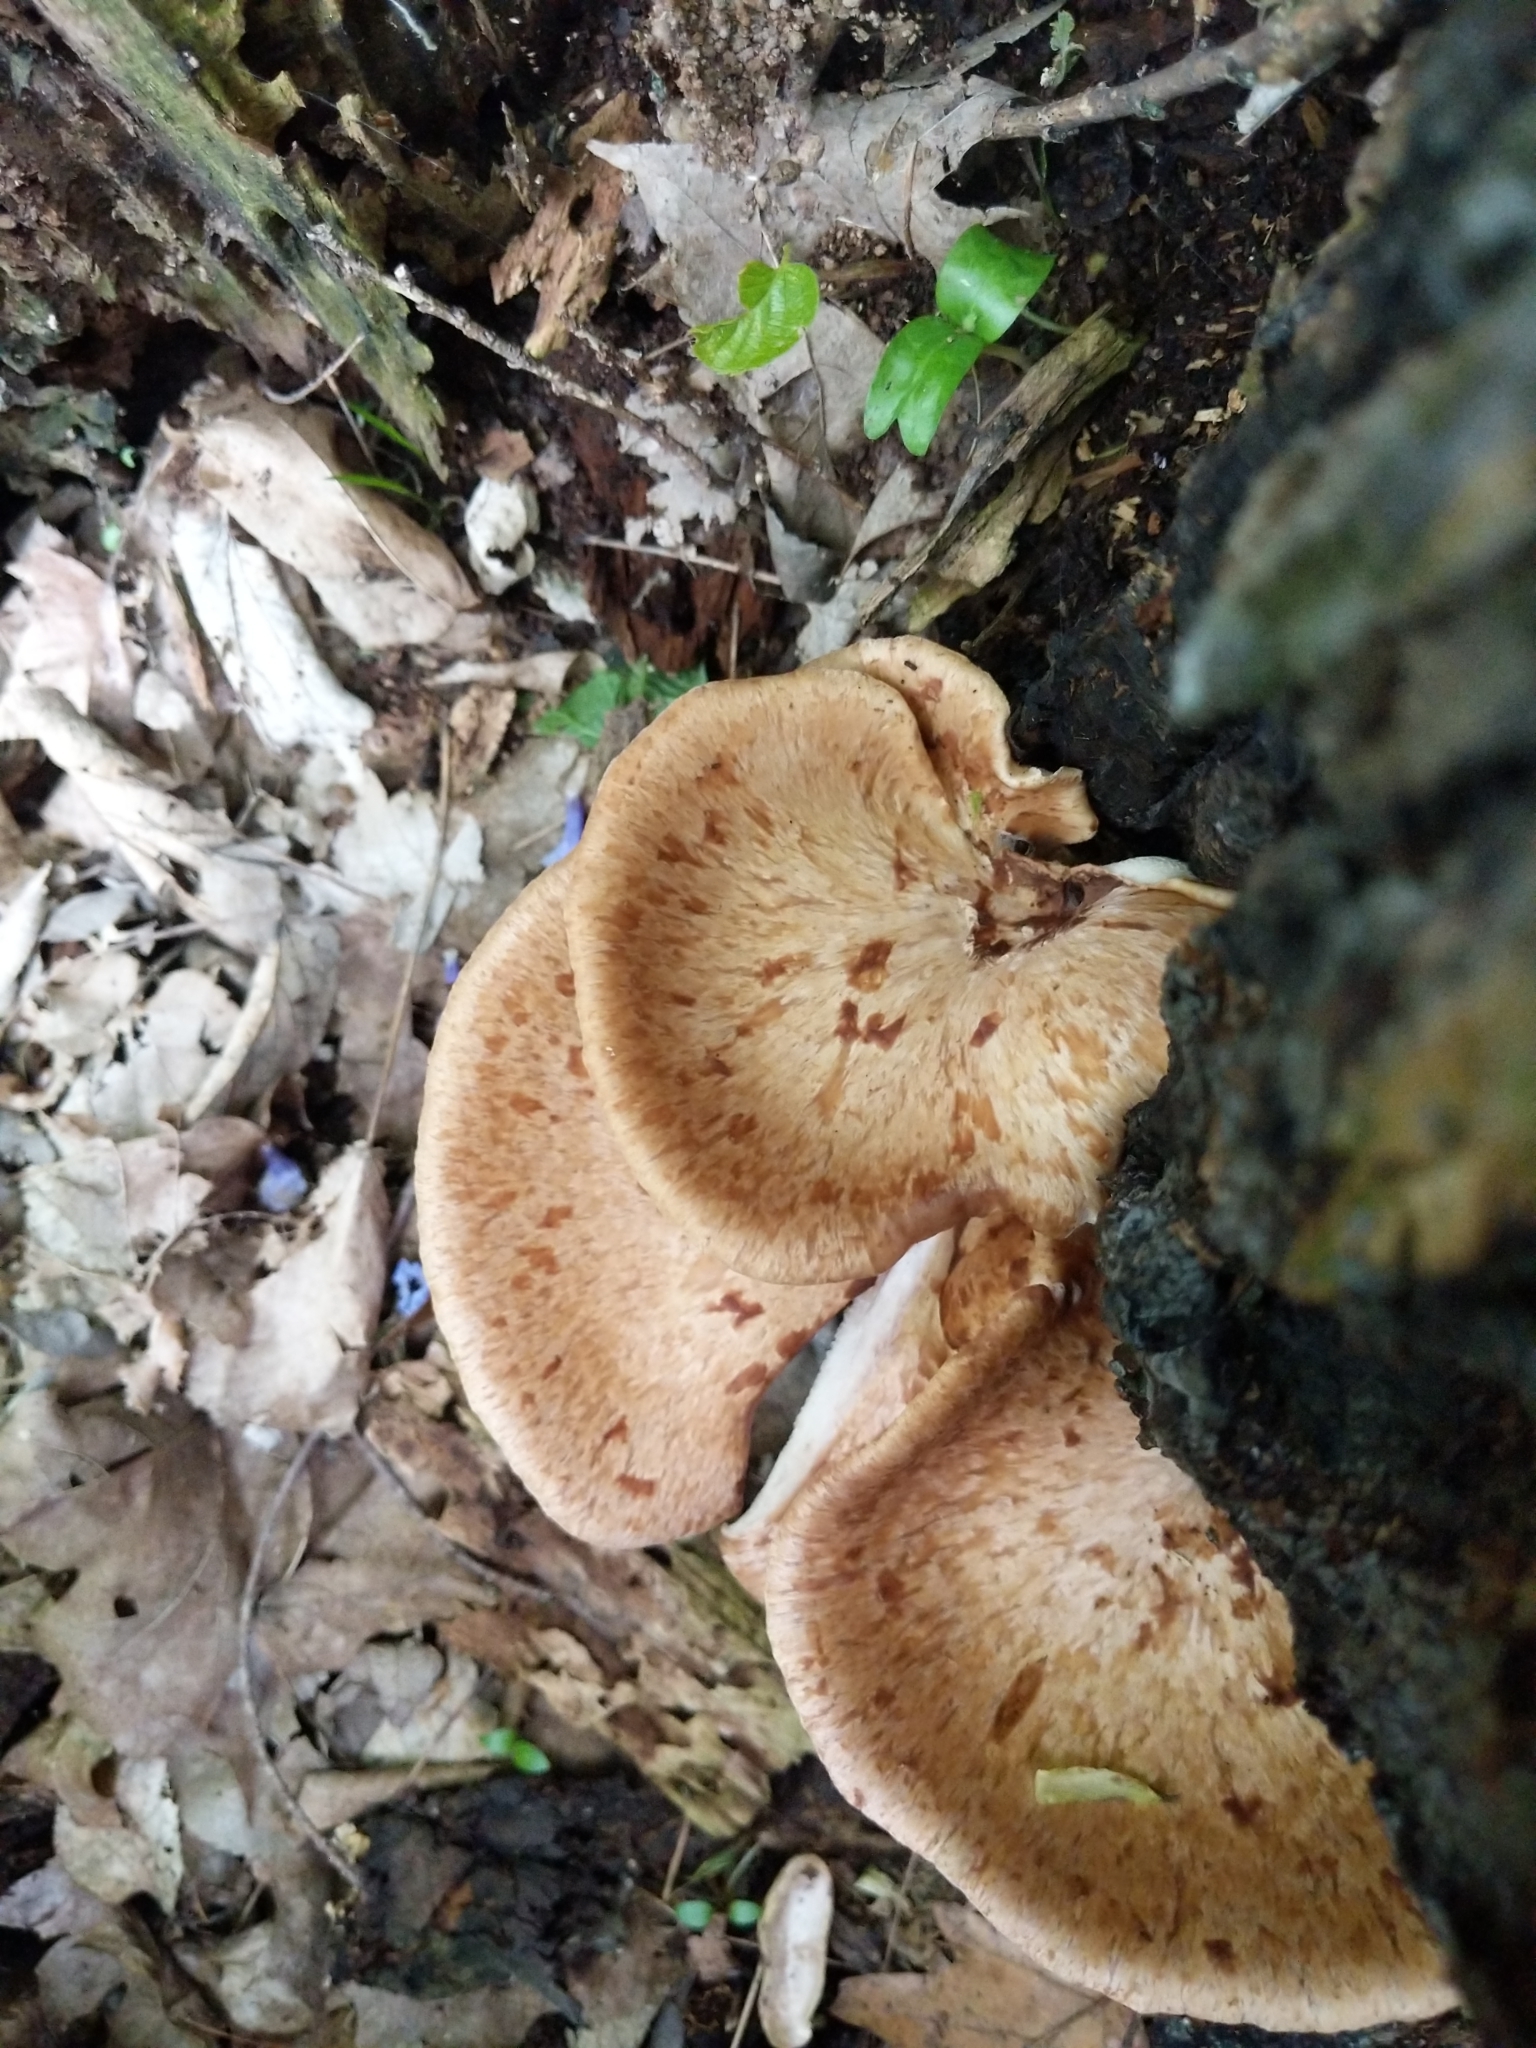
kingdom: Fungi
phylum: Basidiomycota
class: Agaricomycetes
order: Polyporales
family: Polyporaceae
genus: Cerioporus
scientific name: Cerioporus squamosus
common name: Dryad's saddle
